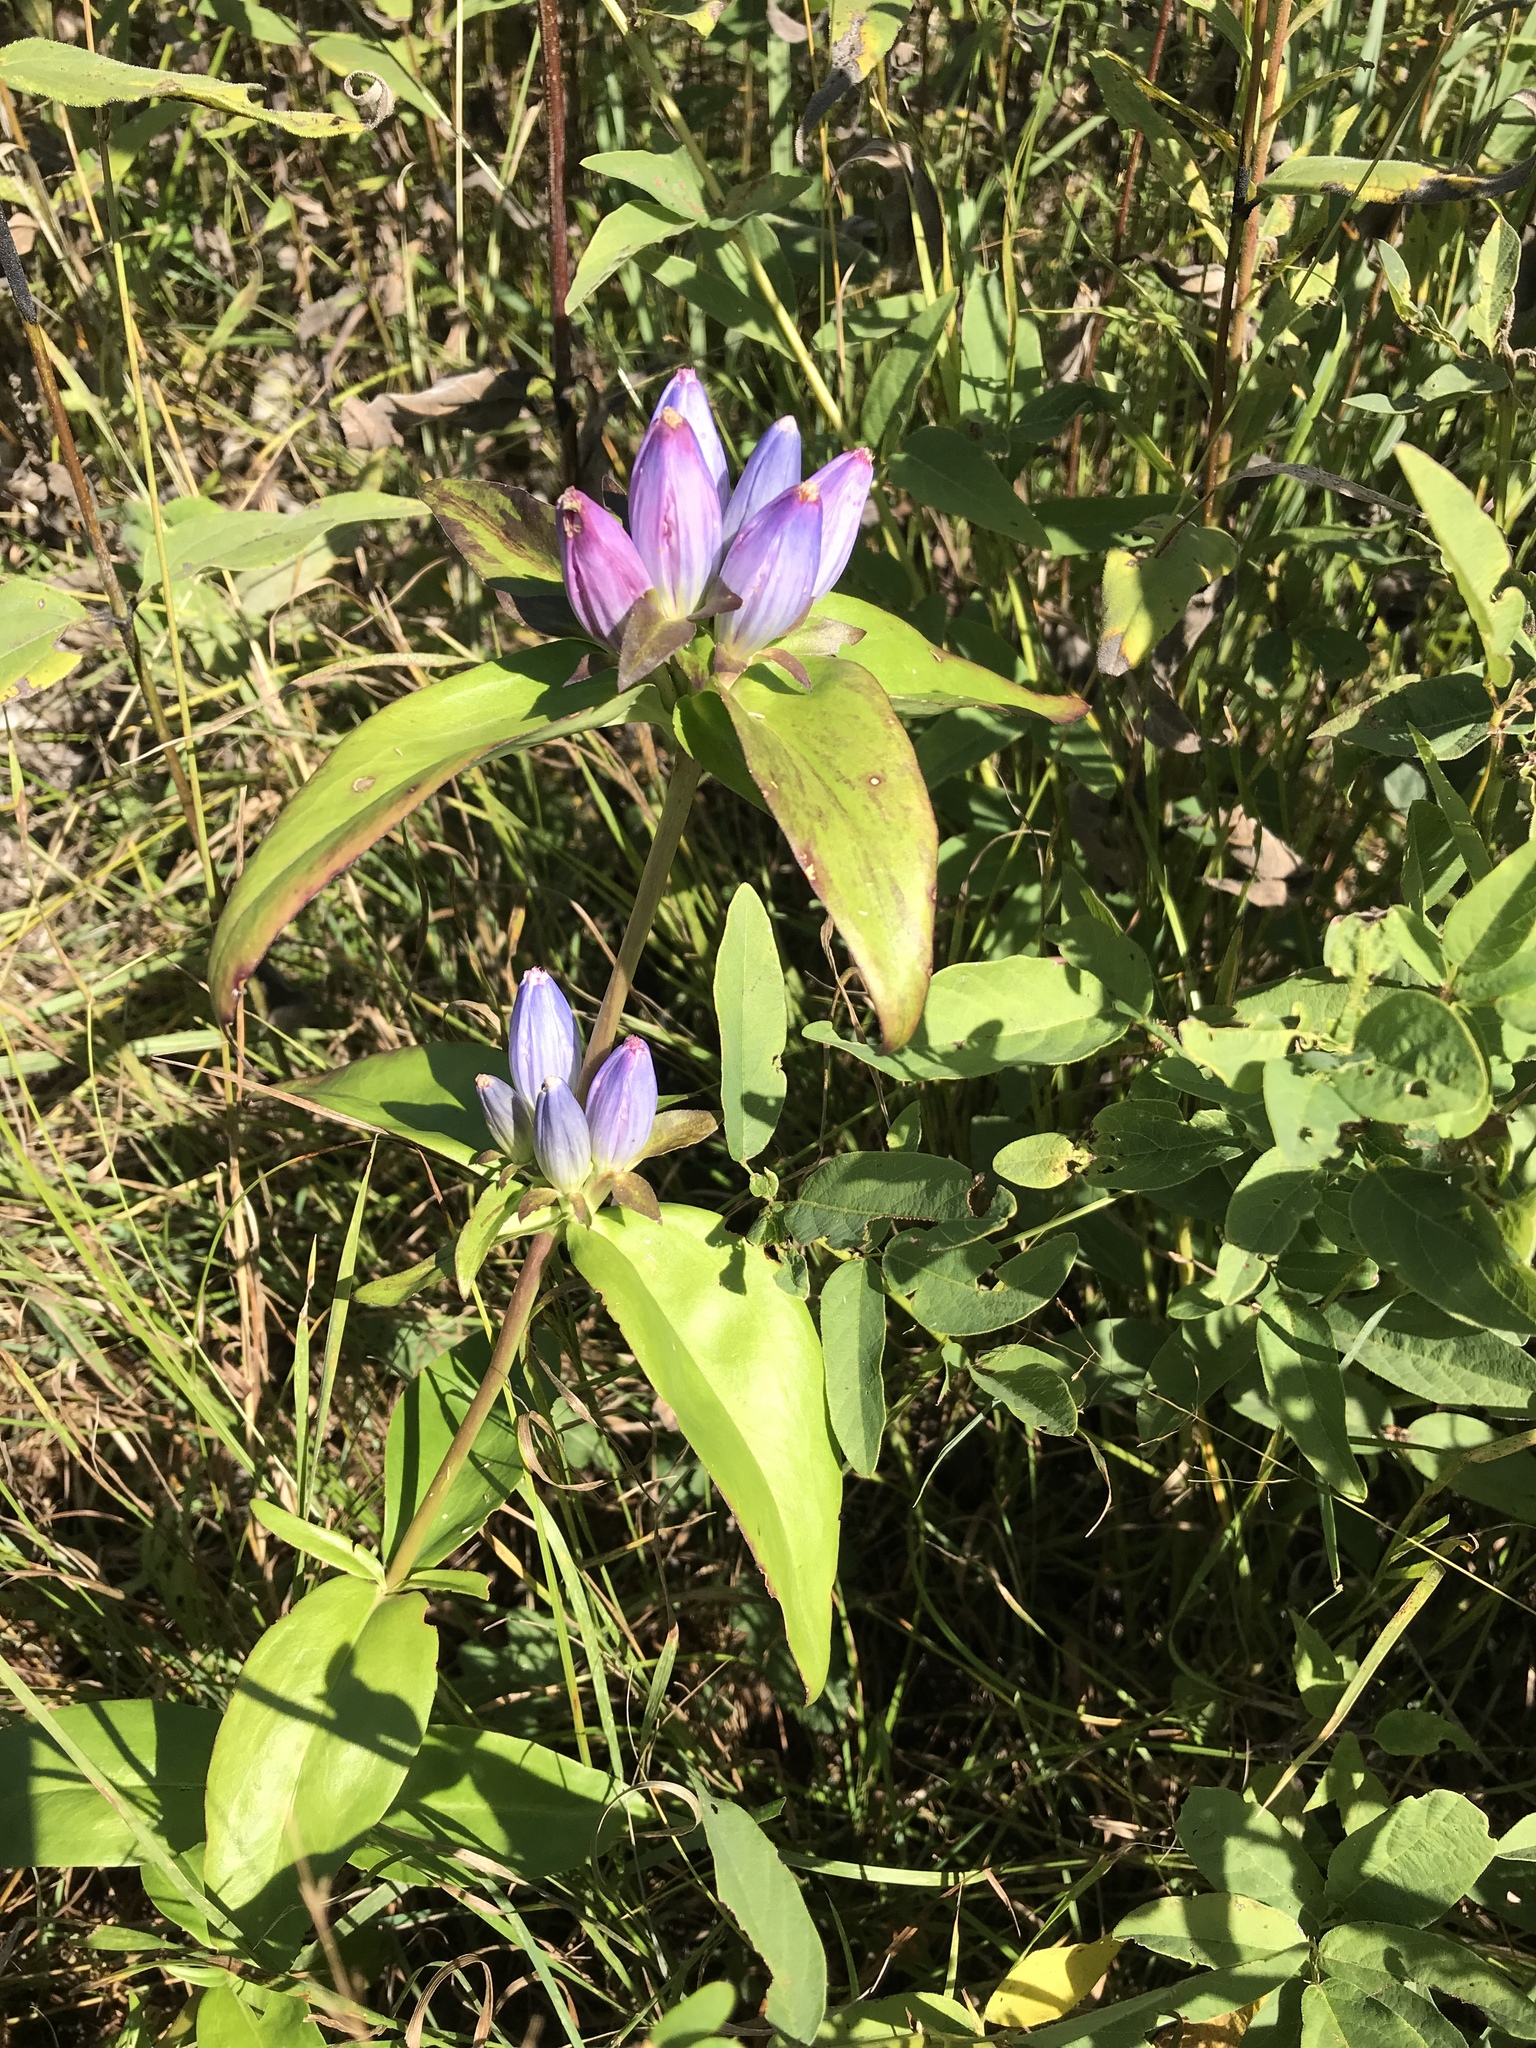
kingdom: Plantae
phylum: Tracheophyta
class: Magnoliopsida
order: Gentianales
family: Gentianaceae
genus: Gentiana
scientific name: Gentiana andrewsii
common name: Bottle gentian
